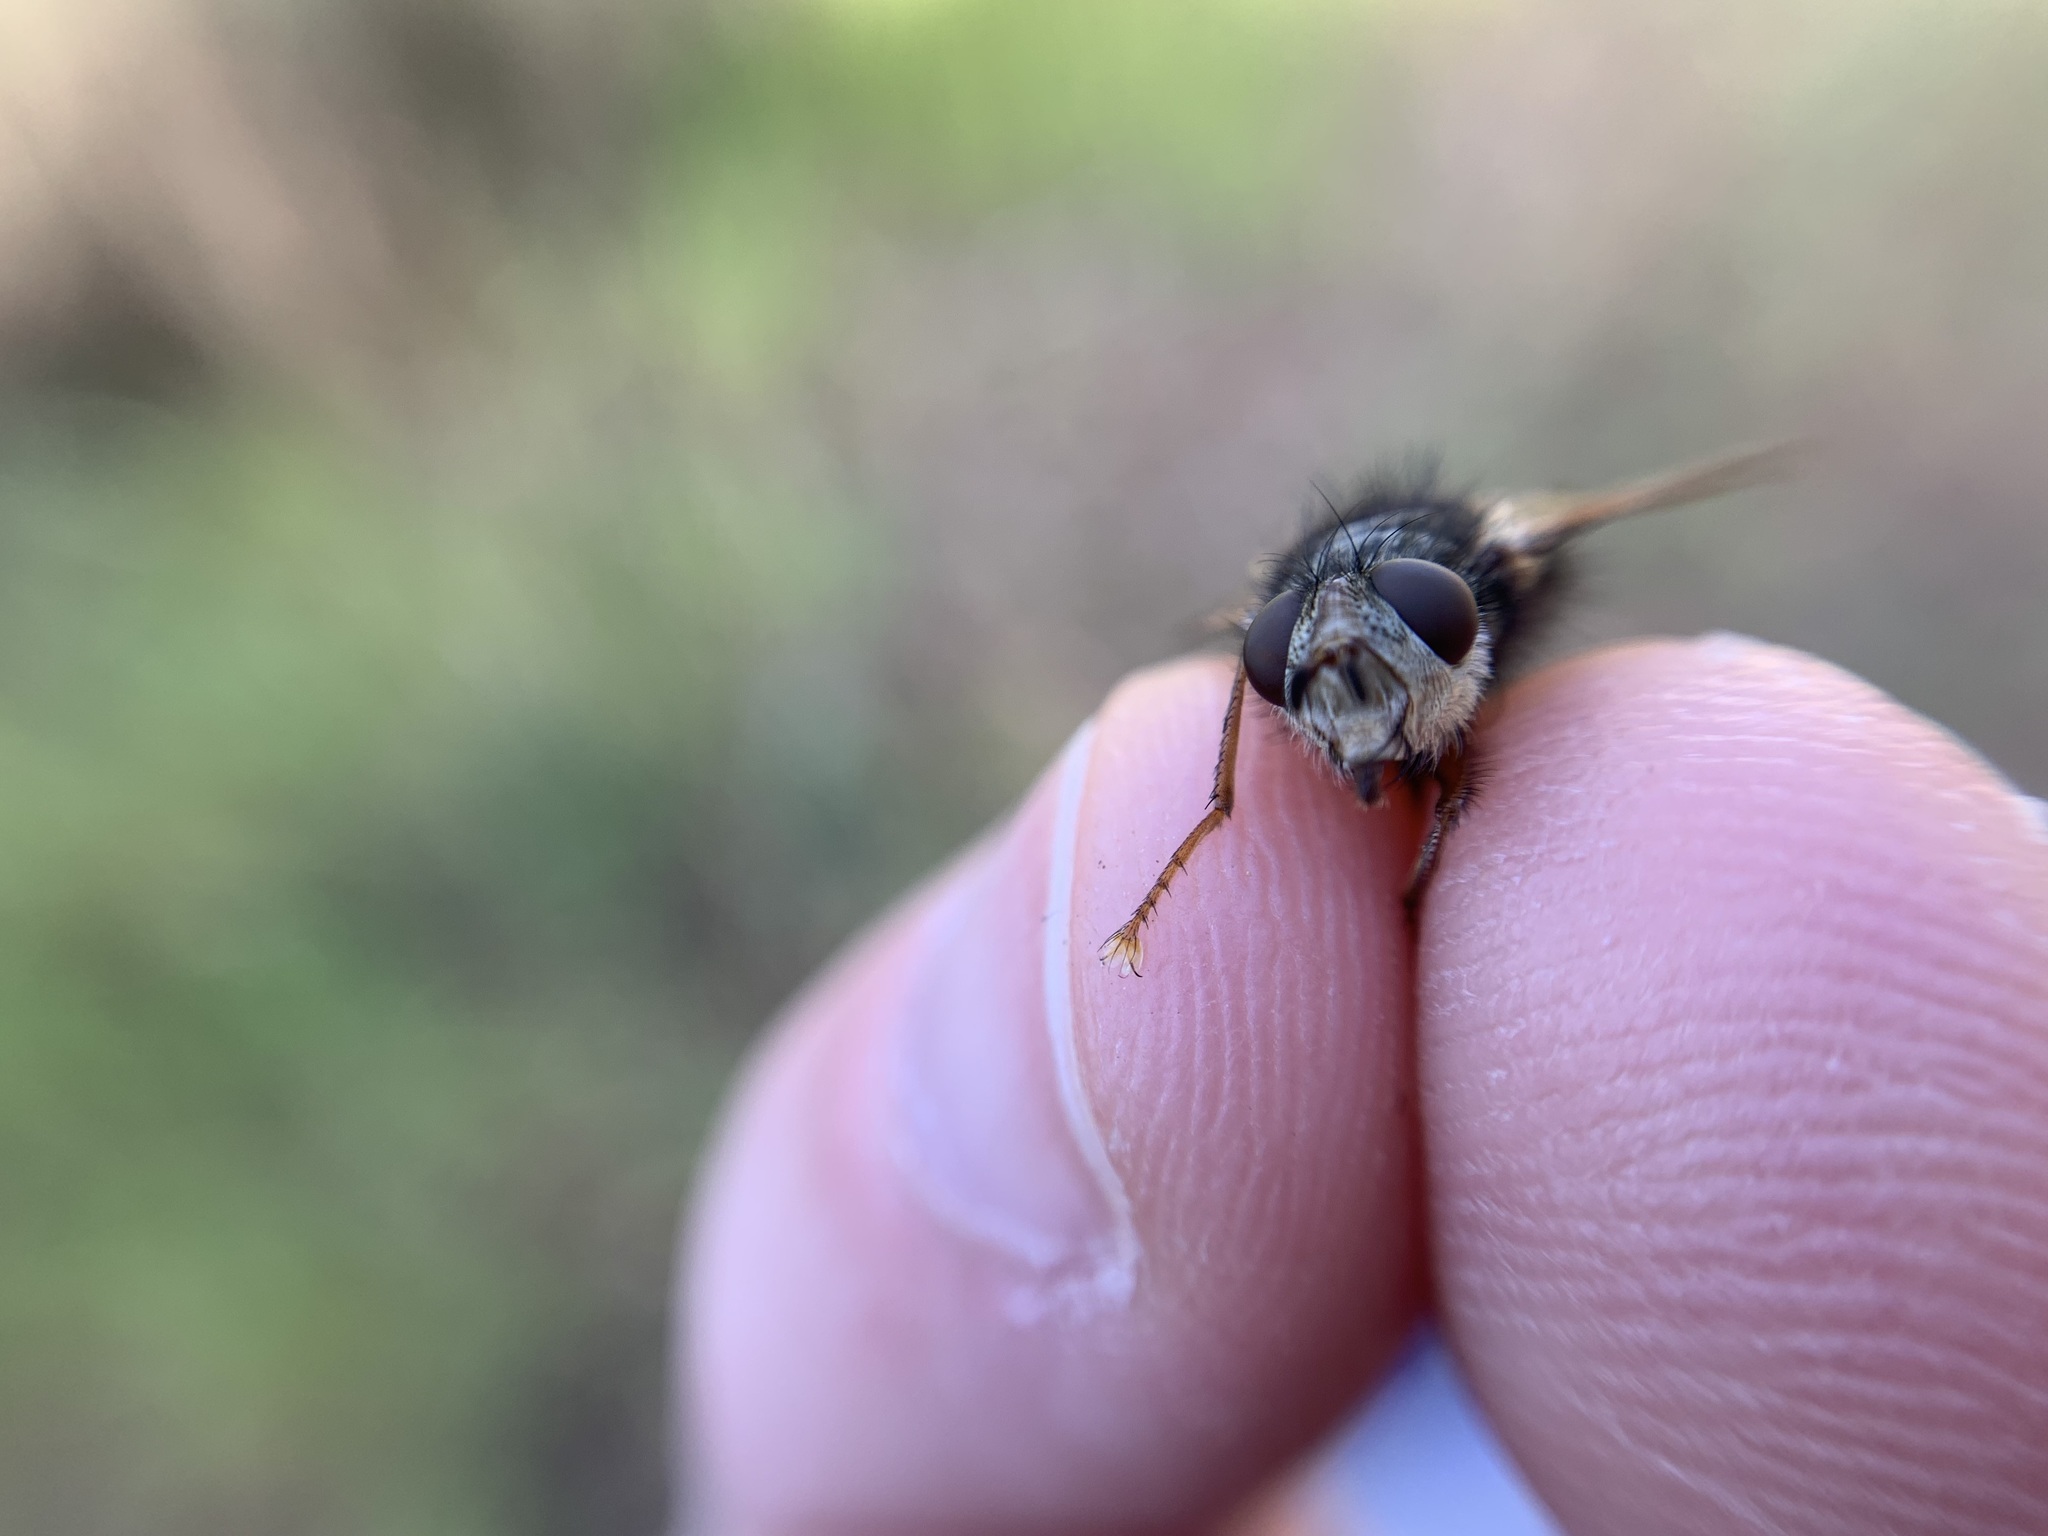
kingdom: Animalia
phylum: Arthropoda
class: Insecta
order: Diptera
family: Tachinidae
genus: Epalpus
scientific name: Epalpus signifer
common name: Early tachinid fly
